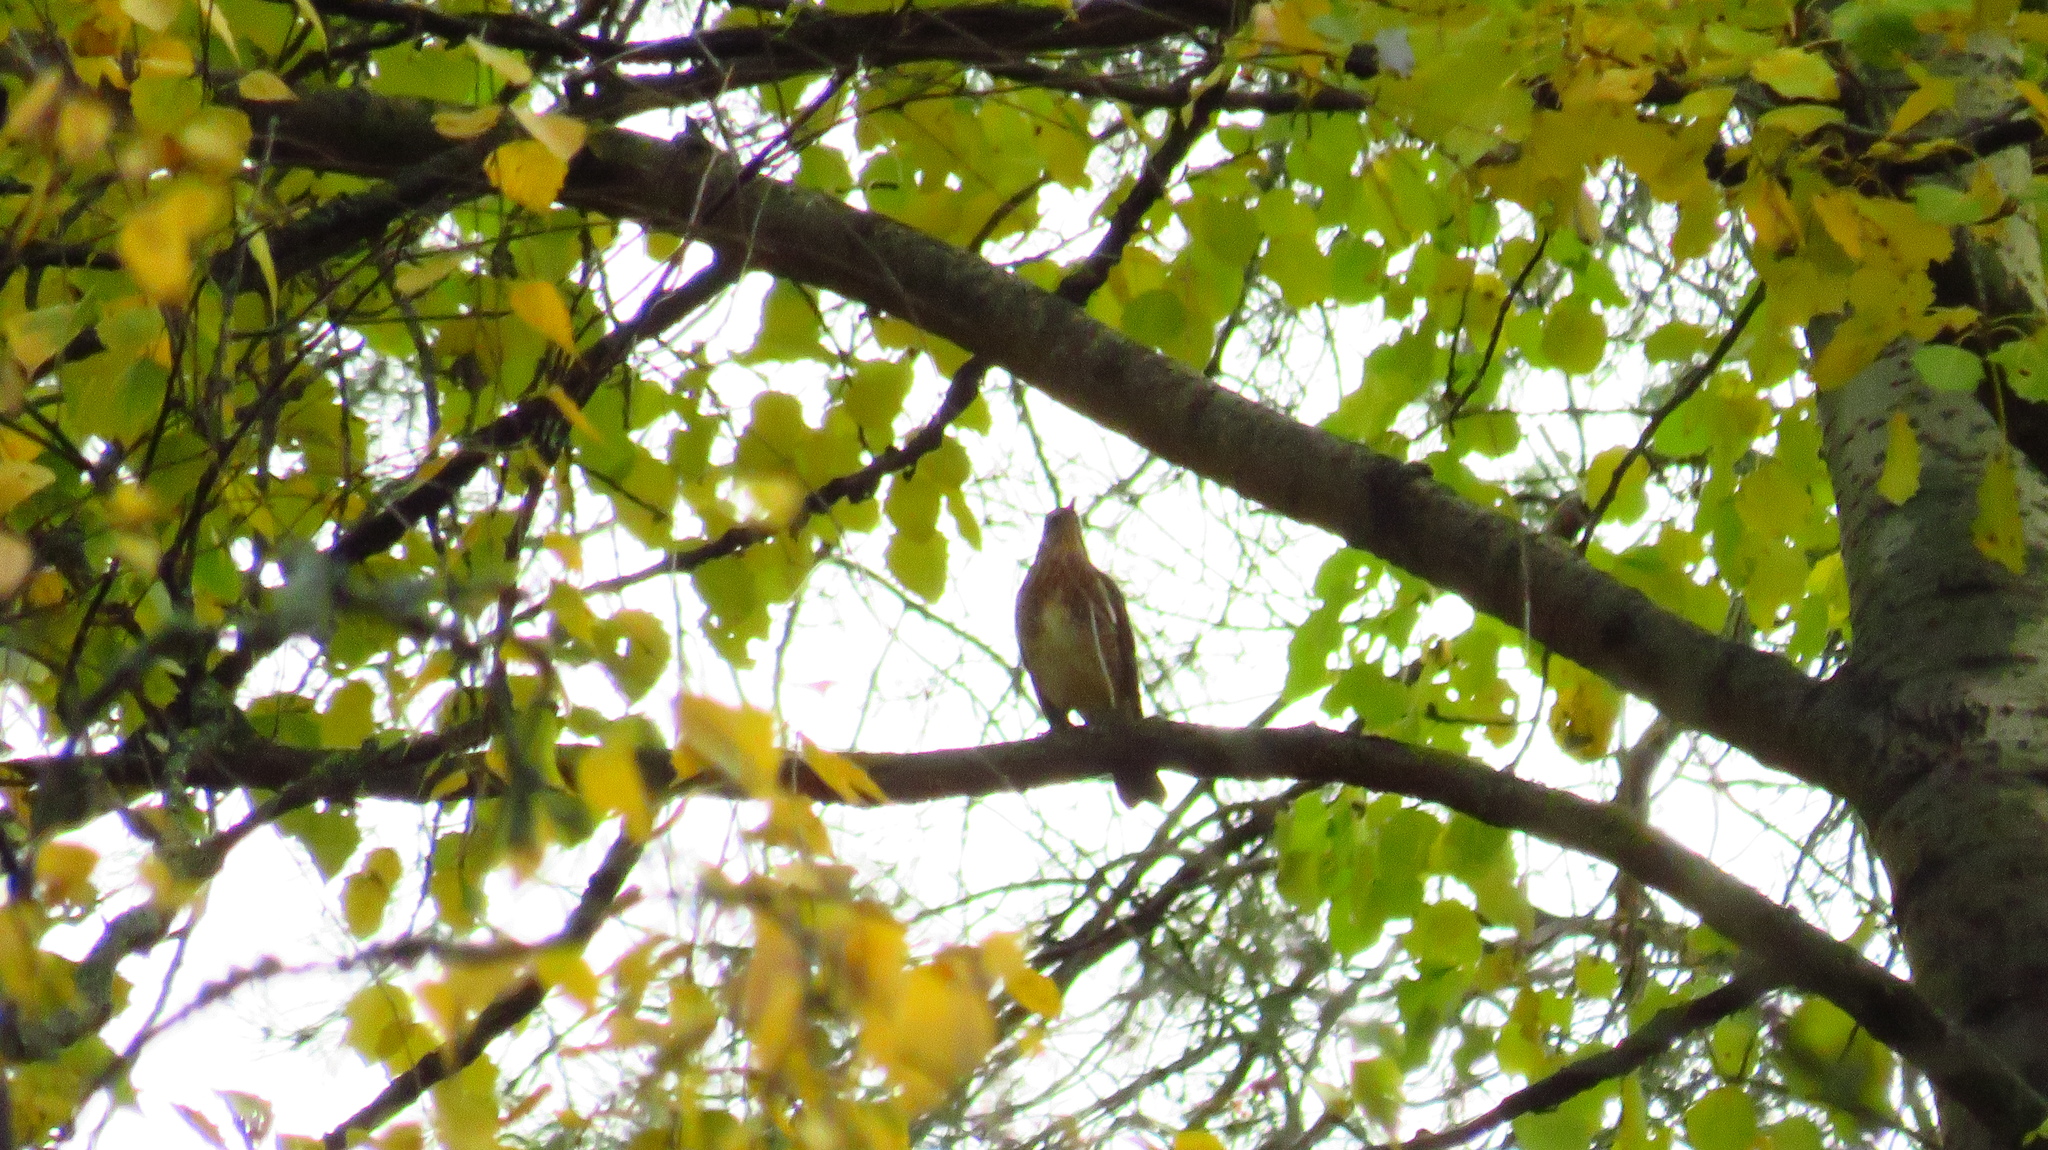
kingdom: Animalia
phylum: Chordata
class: Aves
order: Passeriformes
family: Turdidae
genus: Turdus
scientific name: Turdus pilaris
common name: Fieldfare
